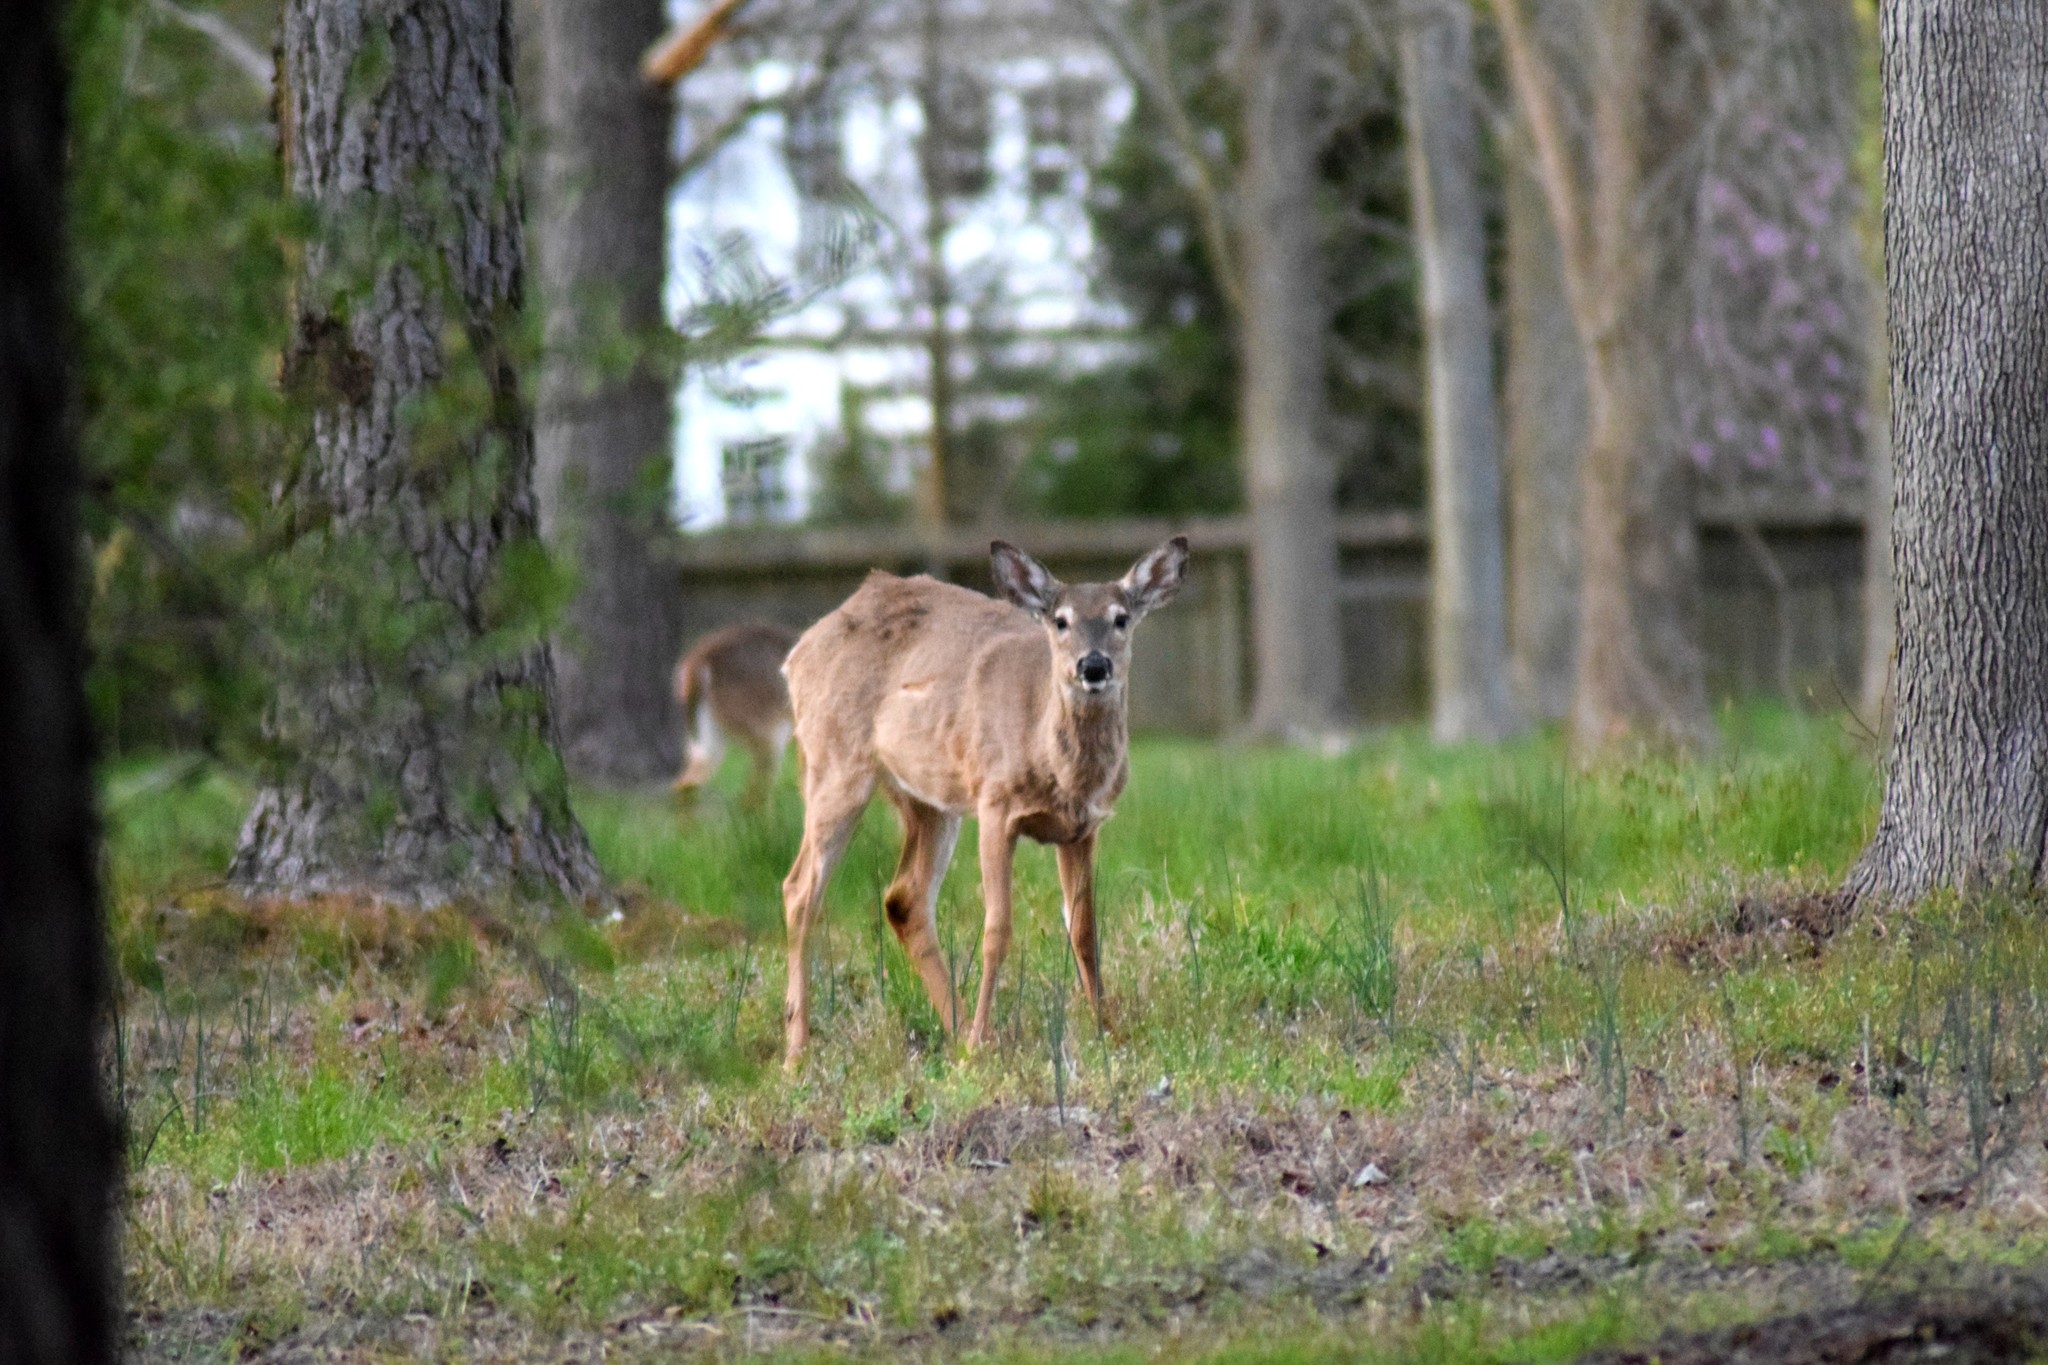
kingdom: Animalia
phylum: Chordata
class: Mammalia
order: Artiodactyla
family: Cervidae
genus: Odocoileus
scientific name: Odocoileus virginianus
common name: White-tailed deer
